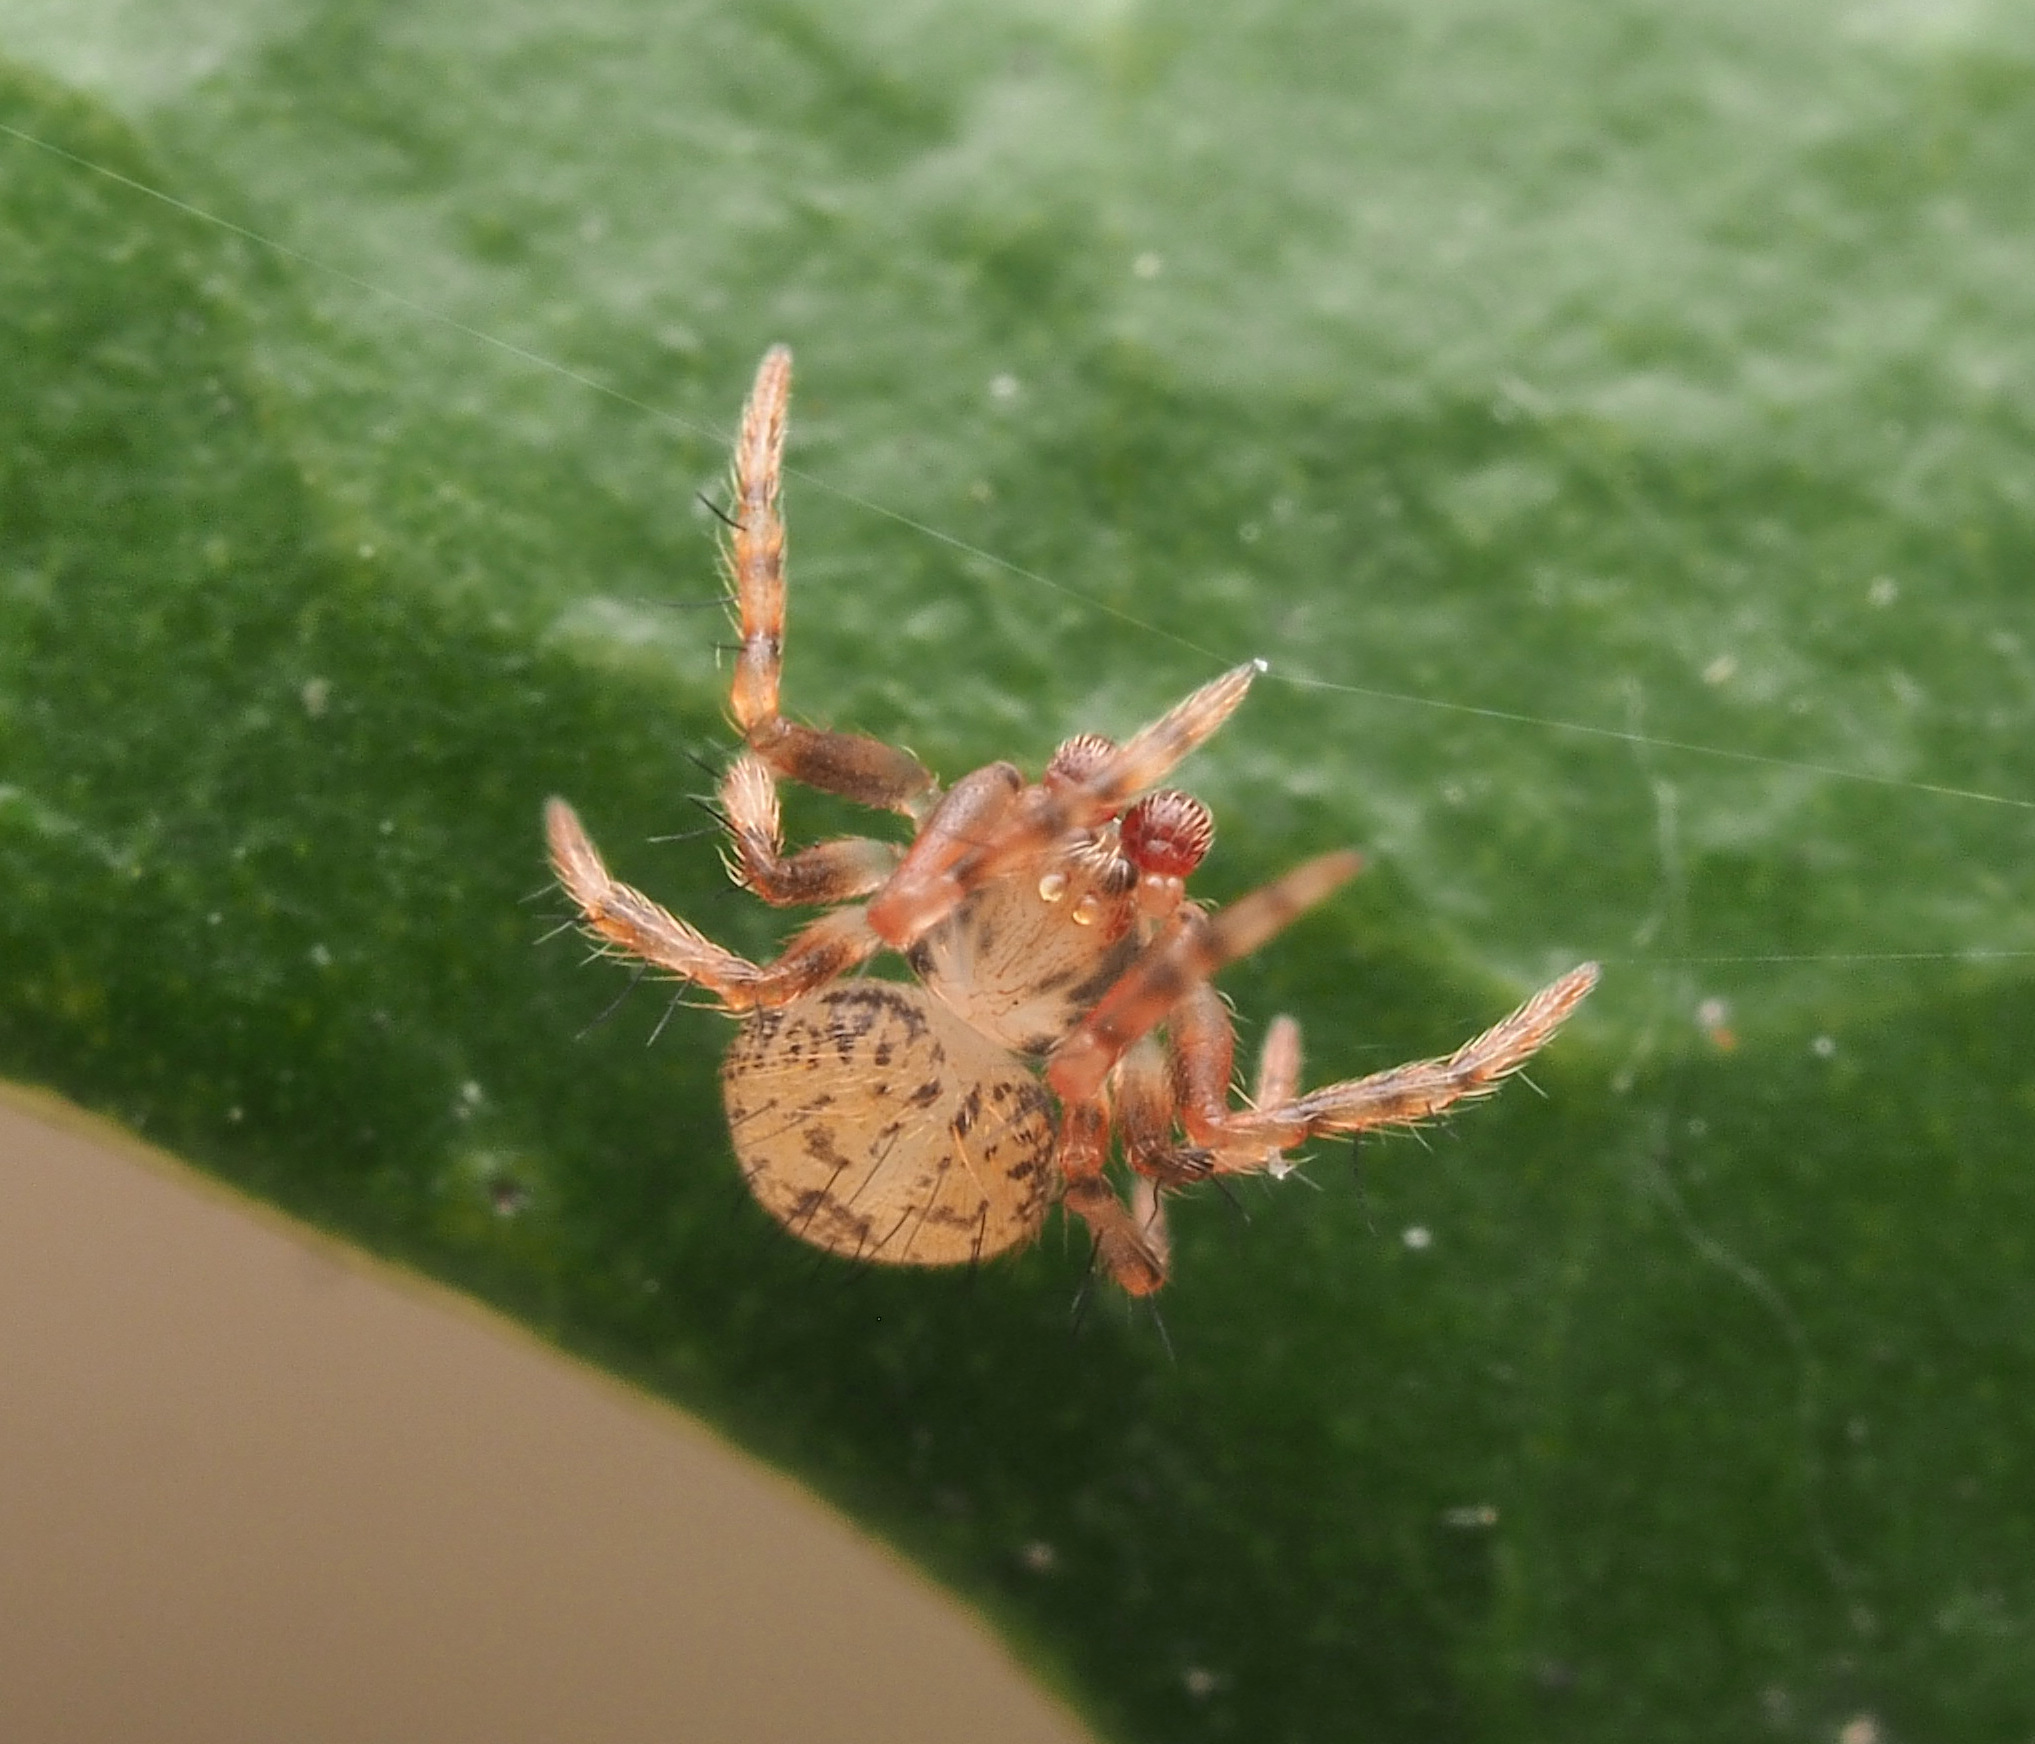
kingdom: Animalia
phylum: Arthropoda
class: Arachnida
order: Araneae
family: Theridiidae
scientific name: Theridiidae
